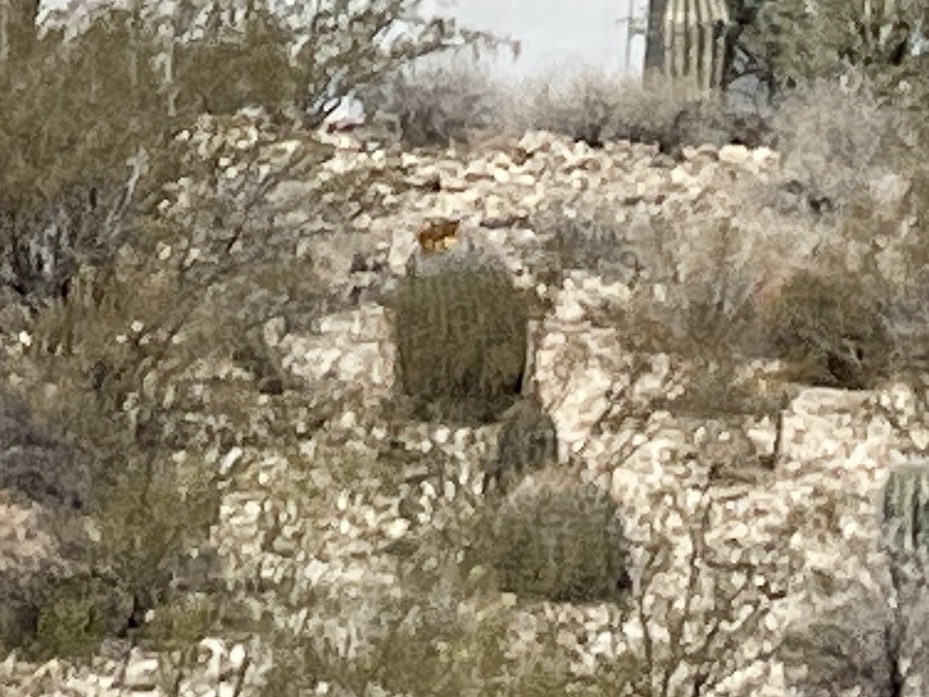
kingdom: Plantae
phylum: Tracheophyta
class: Magnoliopsida
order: Caryophyllales
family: Cactaceae
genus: Ferocactus
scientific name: Ferocactus wislizeni
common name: Candy barrel cactus
